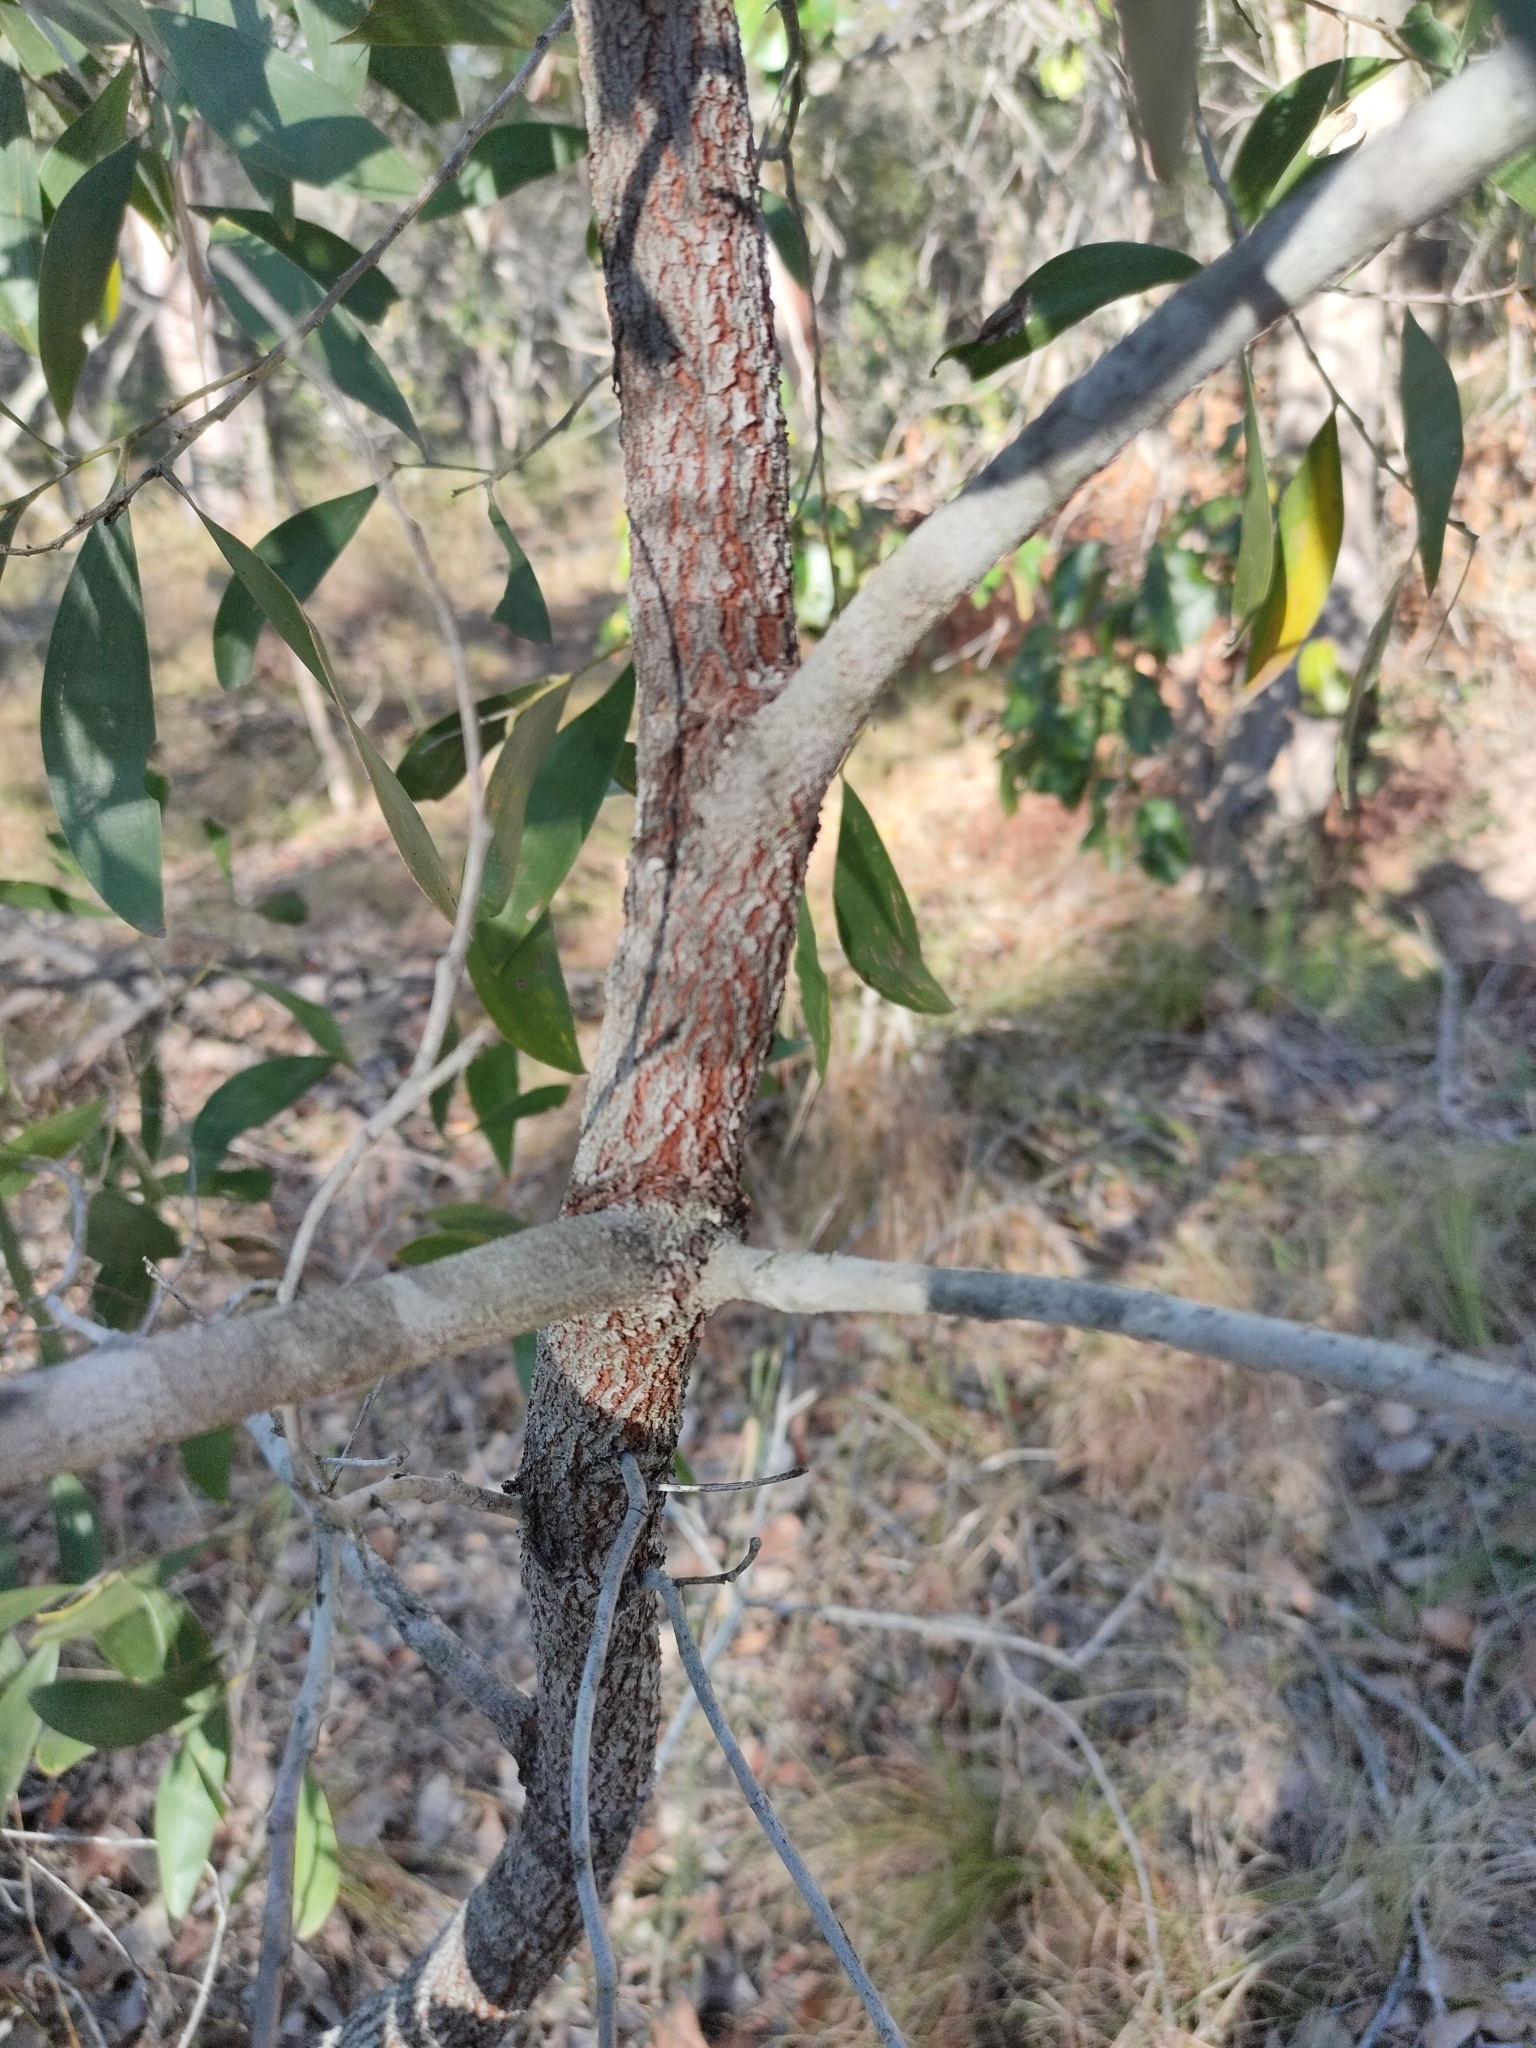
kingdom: Plantae
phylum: Tracheophyta
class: Magnoliopsida
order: Fabales
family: Fabaceae
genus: Acacia
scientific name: Acacia disparrima
